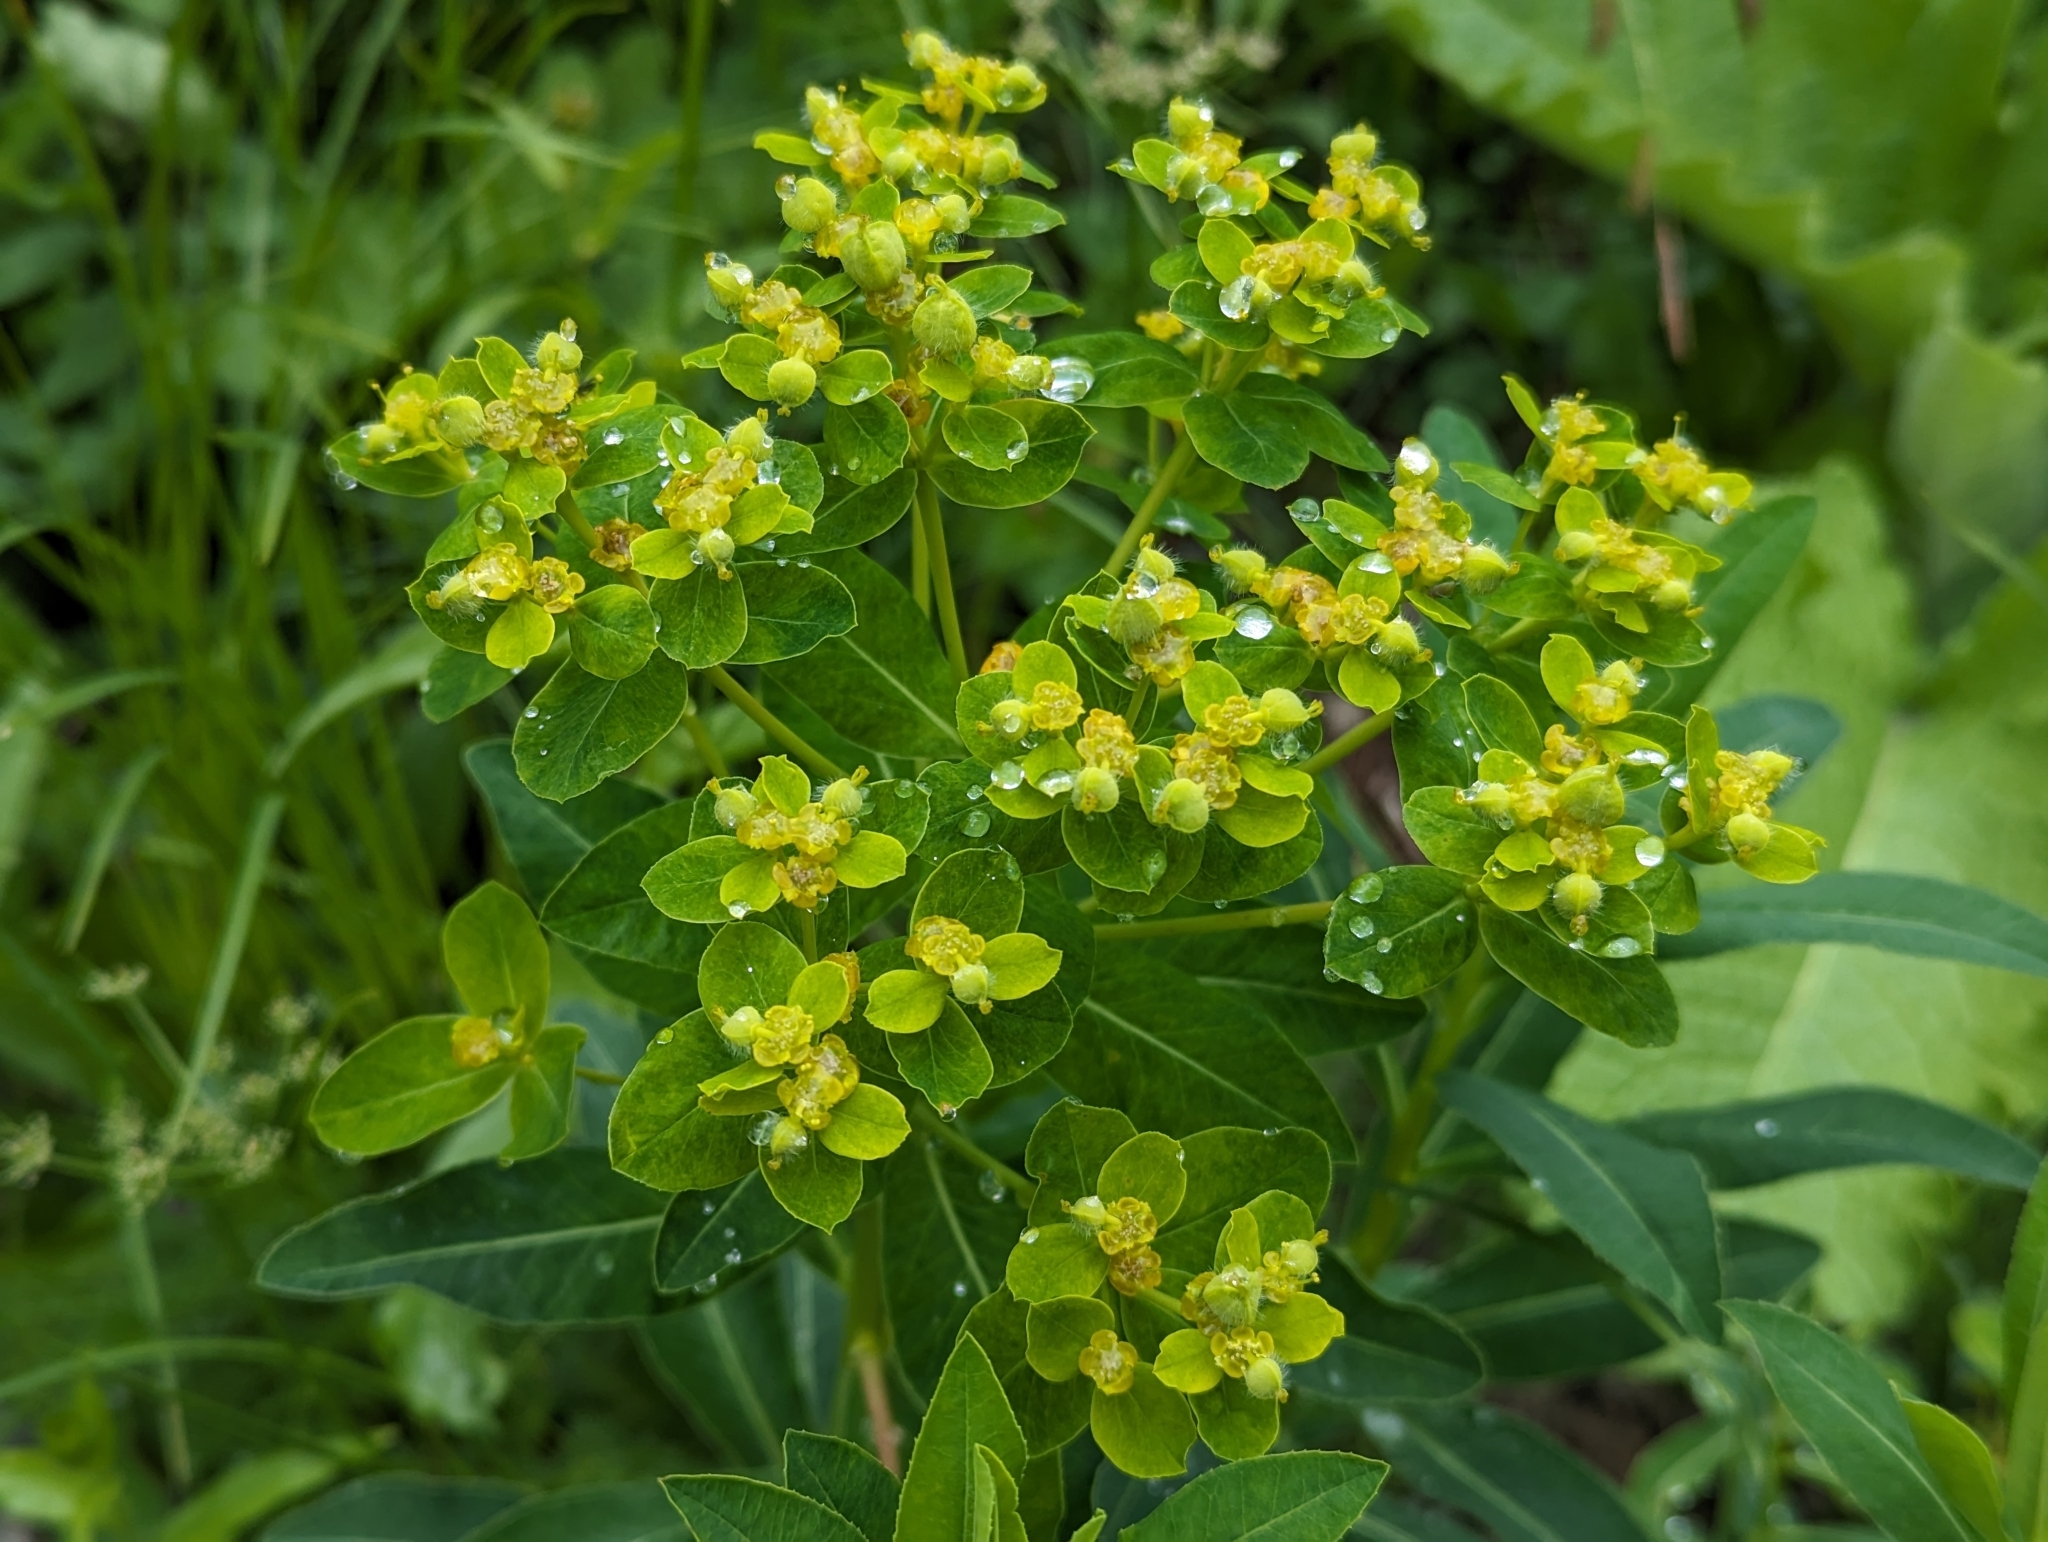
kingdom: Plantae
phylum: Tracheophyta
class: Magnoliopsida
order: Malpighiales
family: Euphorbiaceae
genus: Euphorbia
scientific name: Euphorbia austriaca
